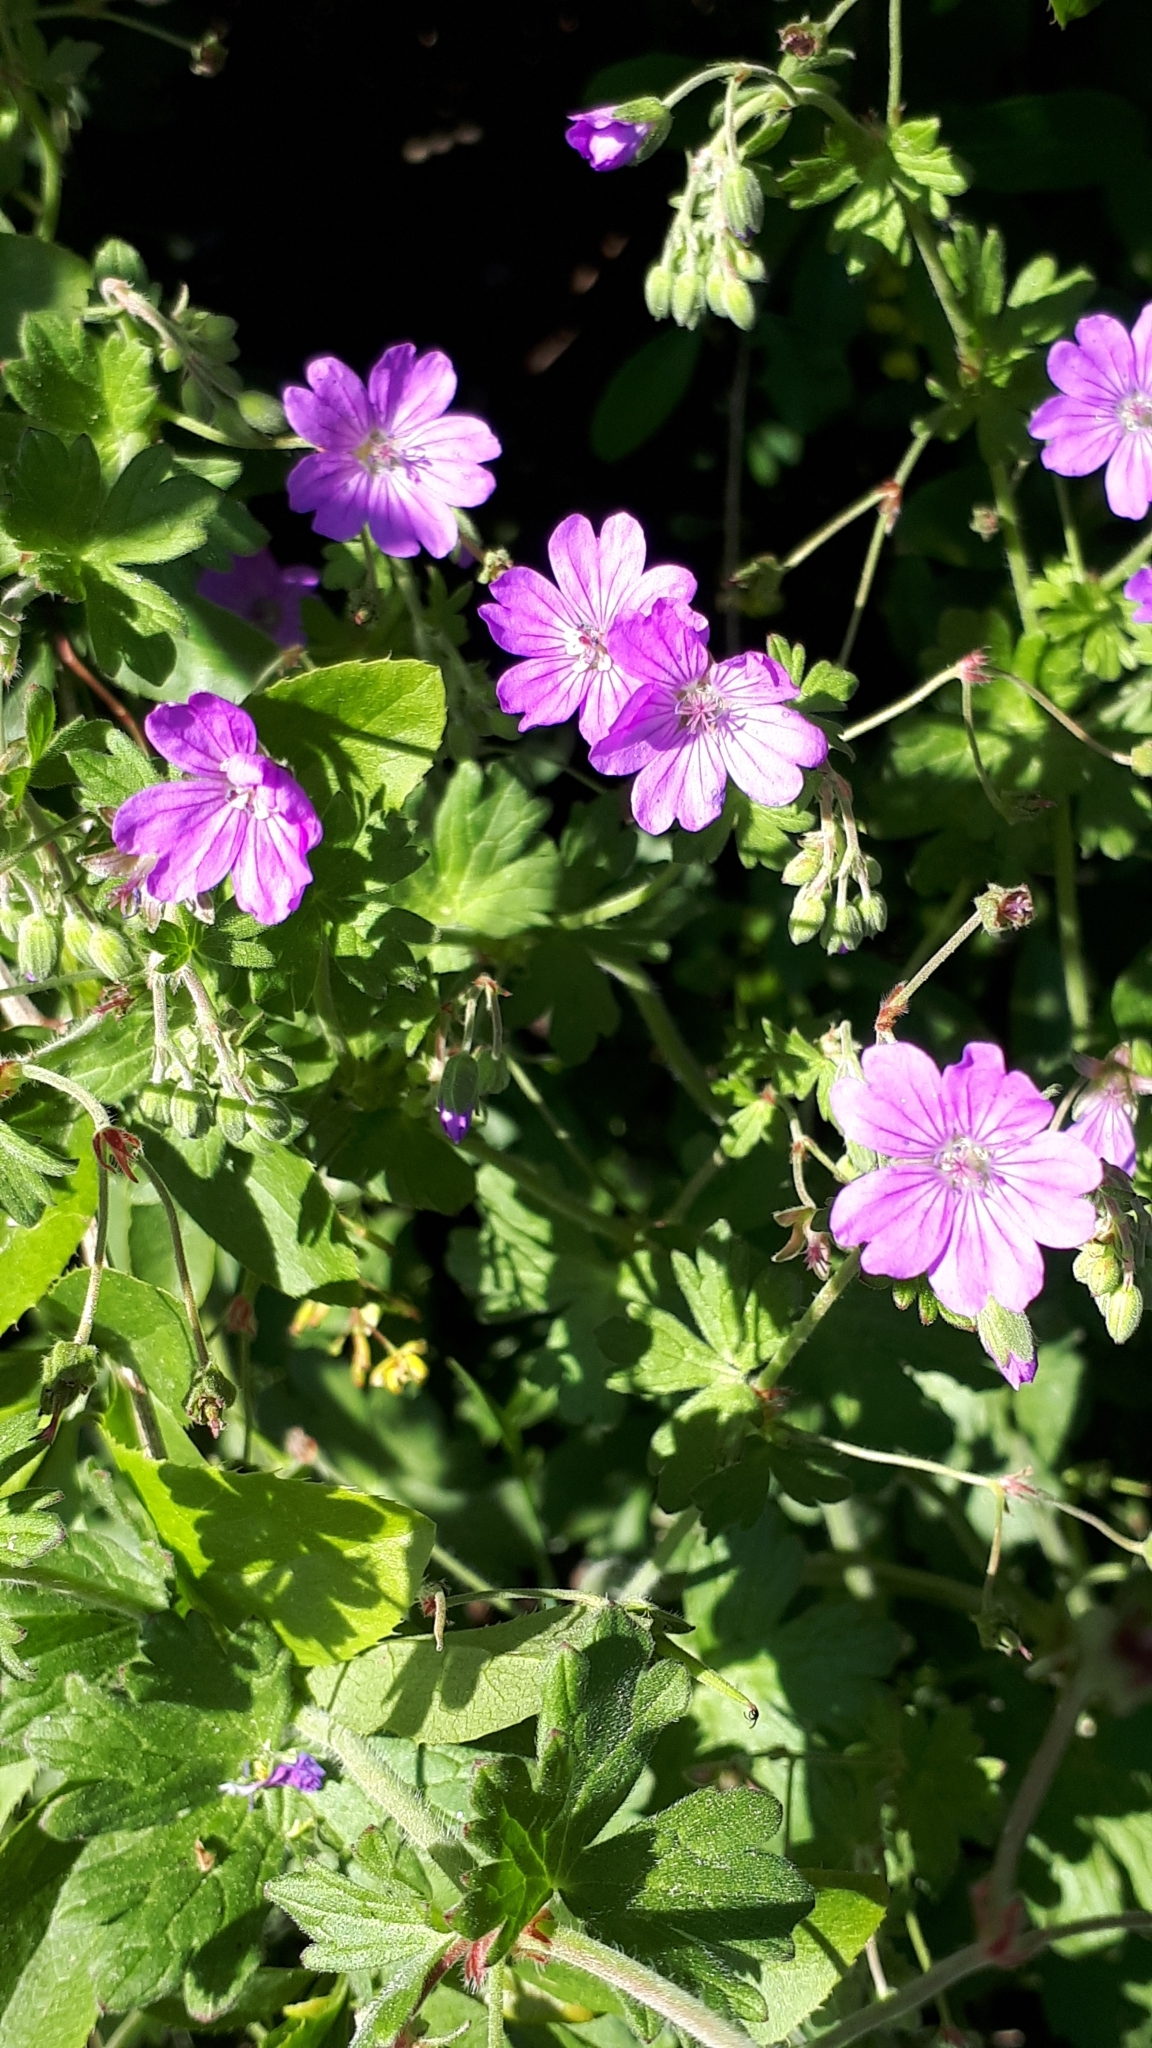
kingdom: Plantae
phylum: Tracheophyta
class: Magnoliopsida
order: Geraniales
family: Geraniaceae
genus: Geranium
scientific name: Geranium pyrenaicum
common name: Hedgerow crane's-bill
